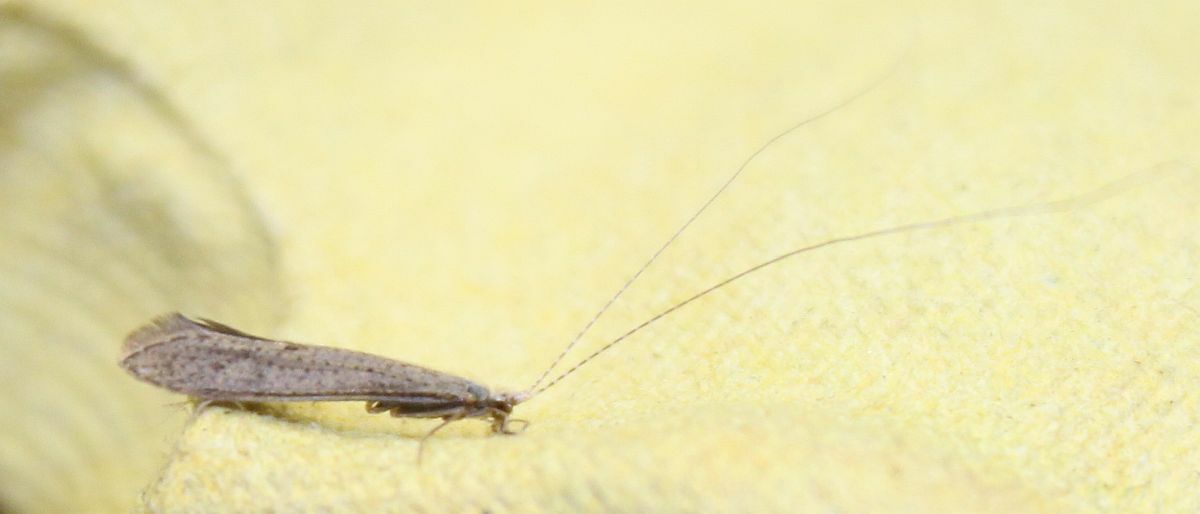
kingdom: Animalia
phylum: Arthropoda
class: Insecta
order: Trichoptera
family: Leptoceridae
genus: Leptocerus
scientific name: Leptocerus tineiformis
